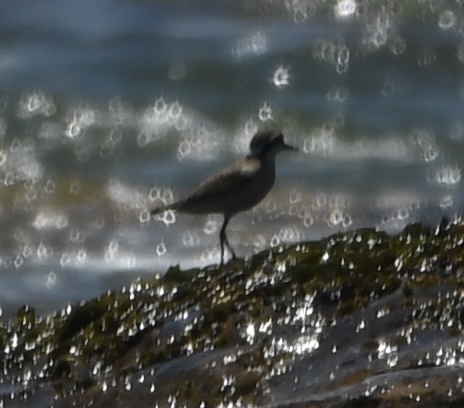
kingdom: Animalia
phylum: Chordata
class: Aves
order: Charadriiformes
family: Charadriidae
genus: Anarhynchus
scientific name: Anarhynchus
